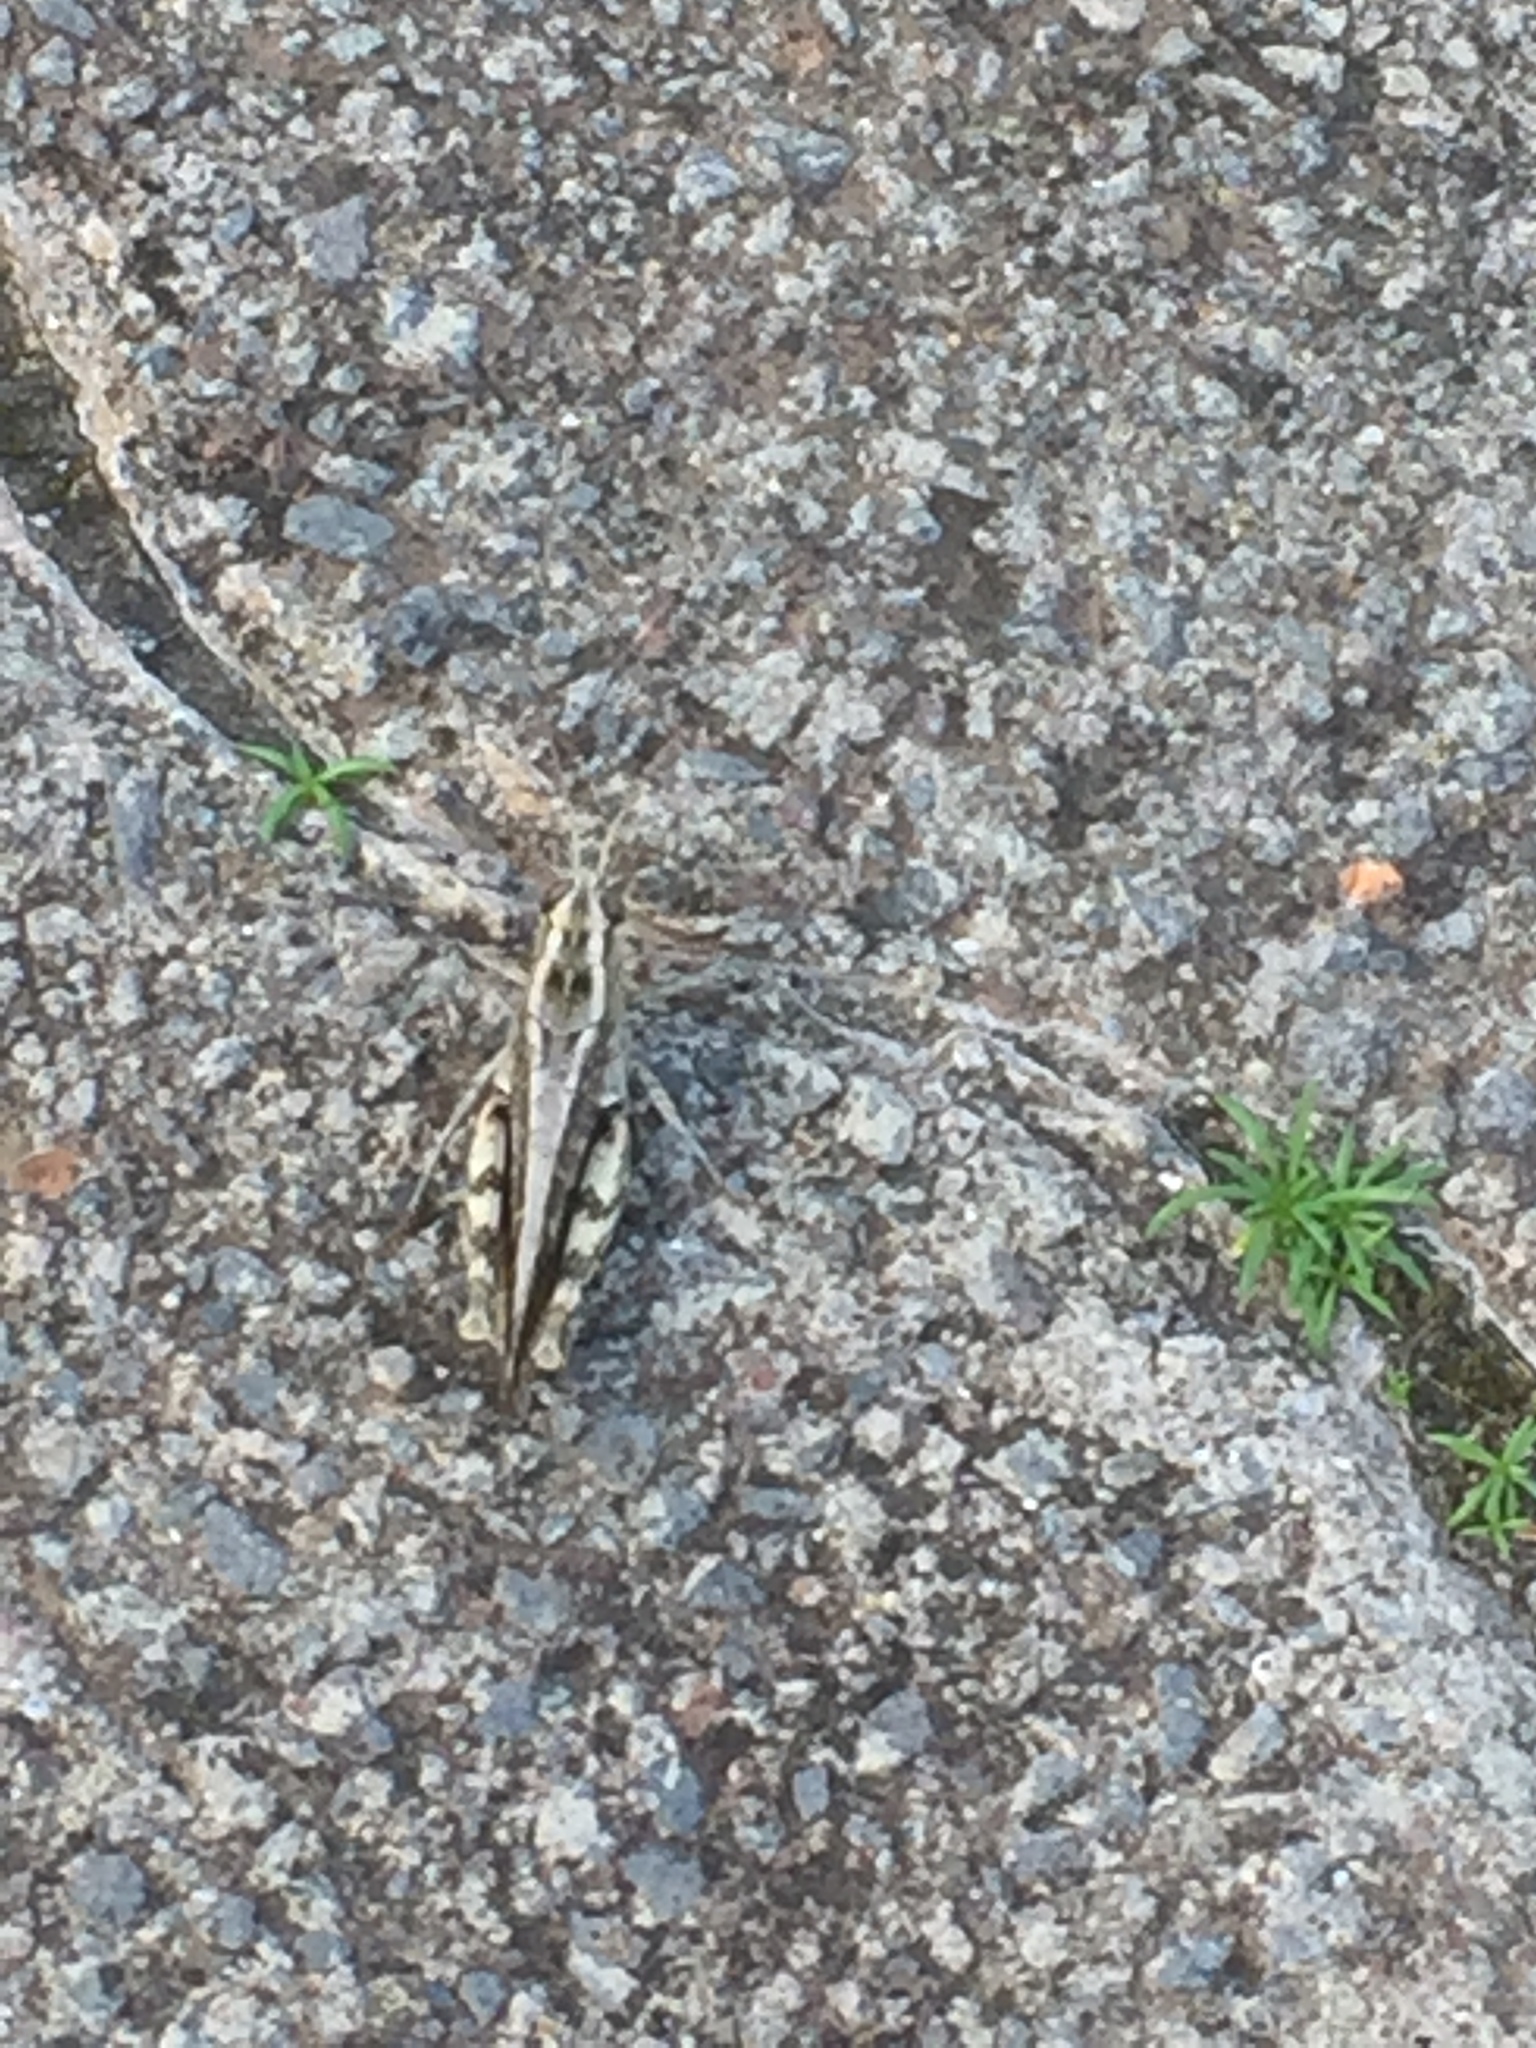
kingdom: Animalia
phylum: Arthropoda
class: Insecta
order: Orthoptera
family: Acrididae
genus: Calliptamus
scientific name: Calliptamus madeirae
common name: Madeira pincer grasshopper
